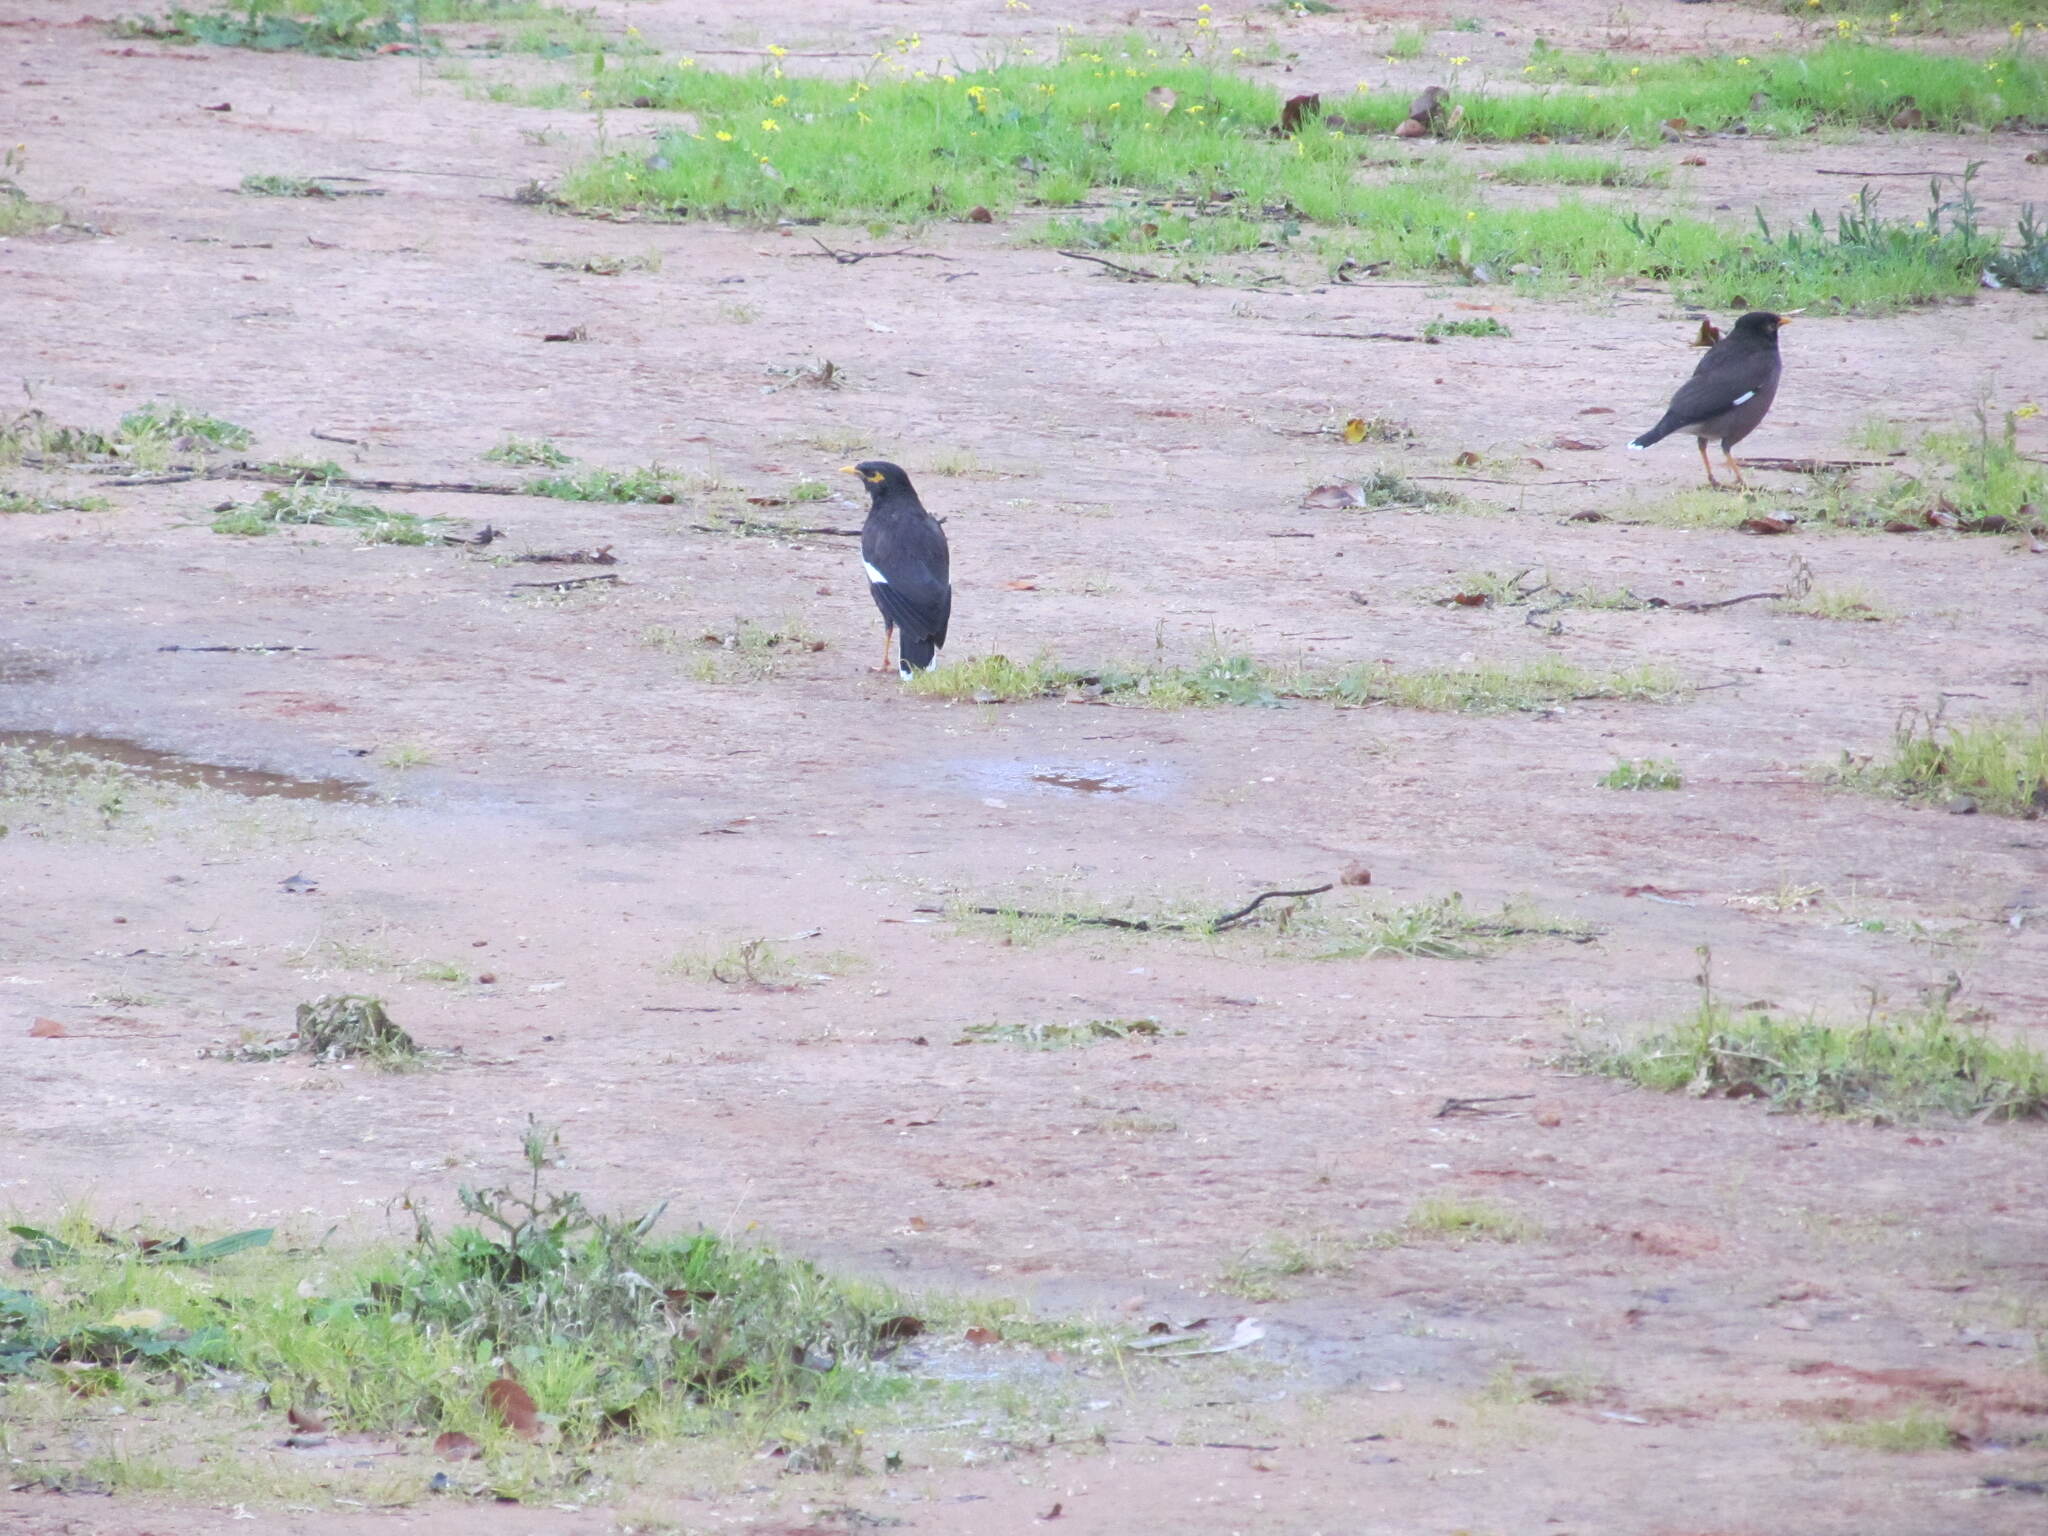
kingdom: Animalia
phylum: Chordata
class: Aves
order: Passeriformes
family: Sturnidae
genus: Acridotheres
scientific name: Acridotheres tristis
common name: Common myna
